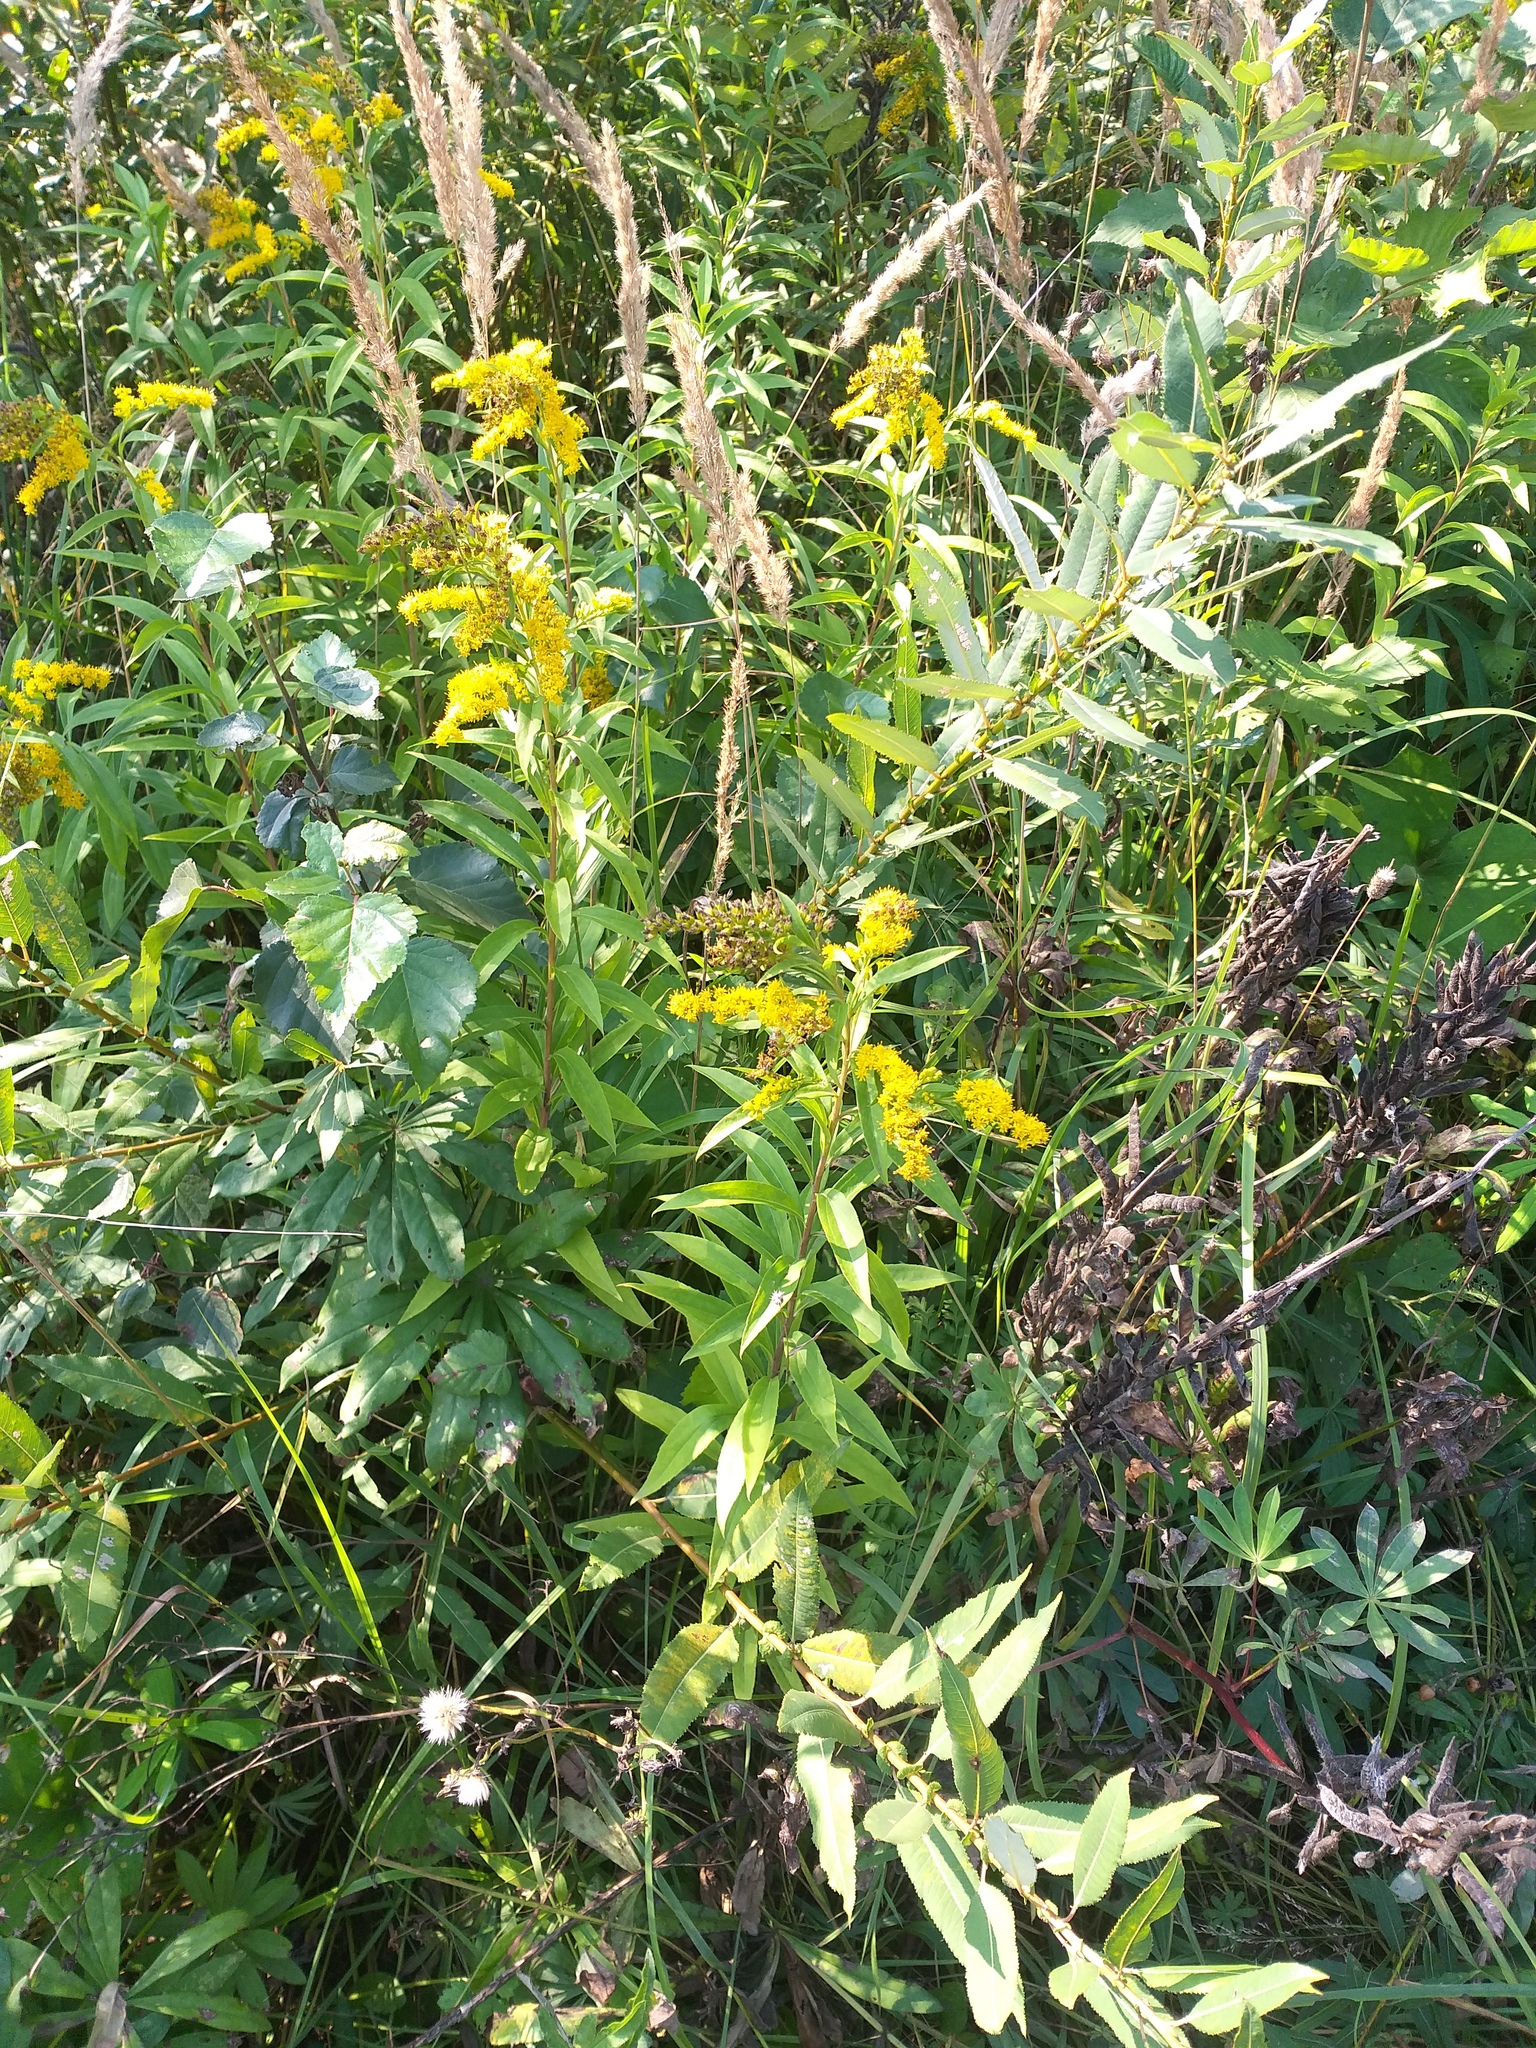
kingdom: Plantae
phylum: Tracheophyta
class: Magnoliopsida
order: Asterales
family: Asteraceae
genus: Solidago
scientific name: Solidago gigantea
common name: Giant goldenrod
